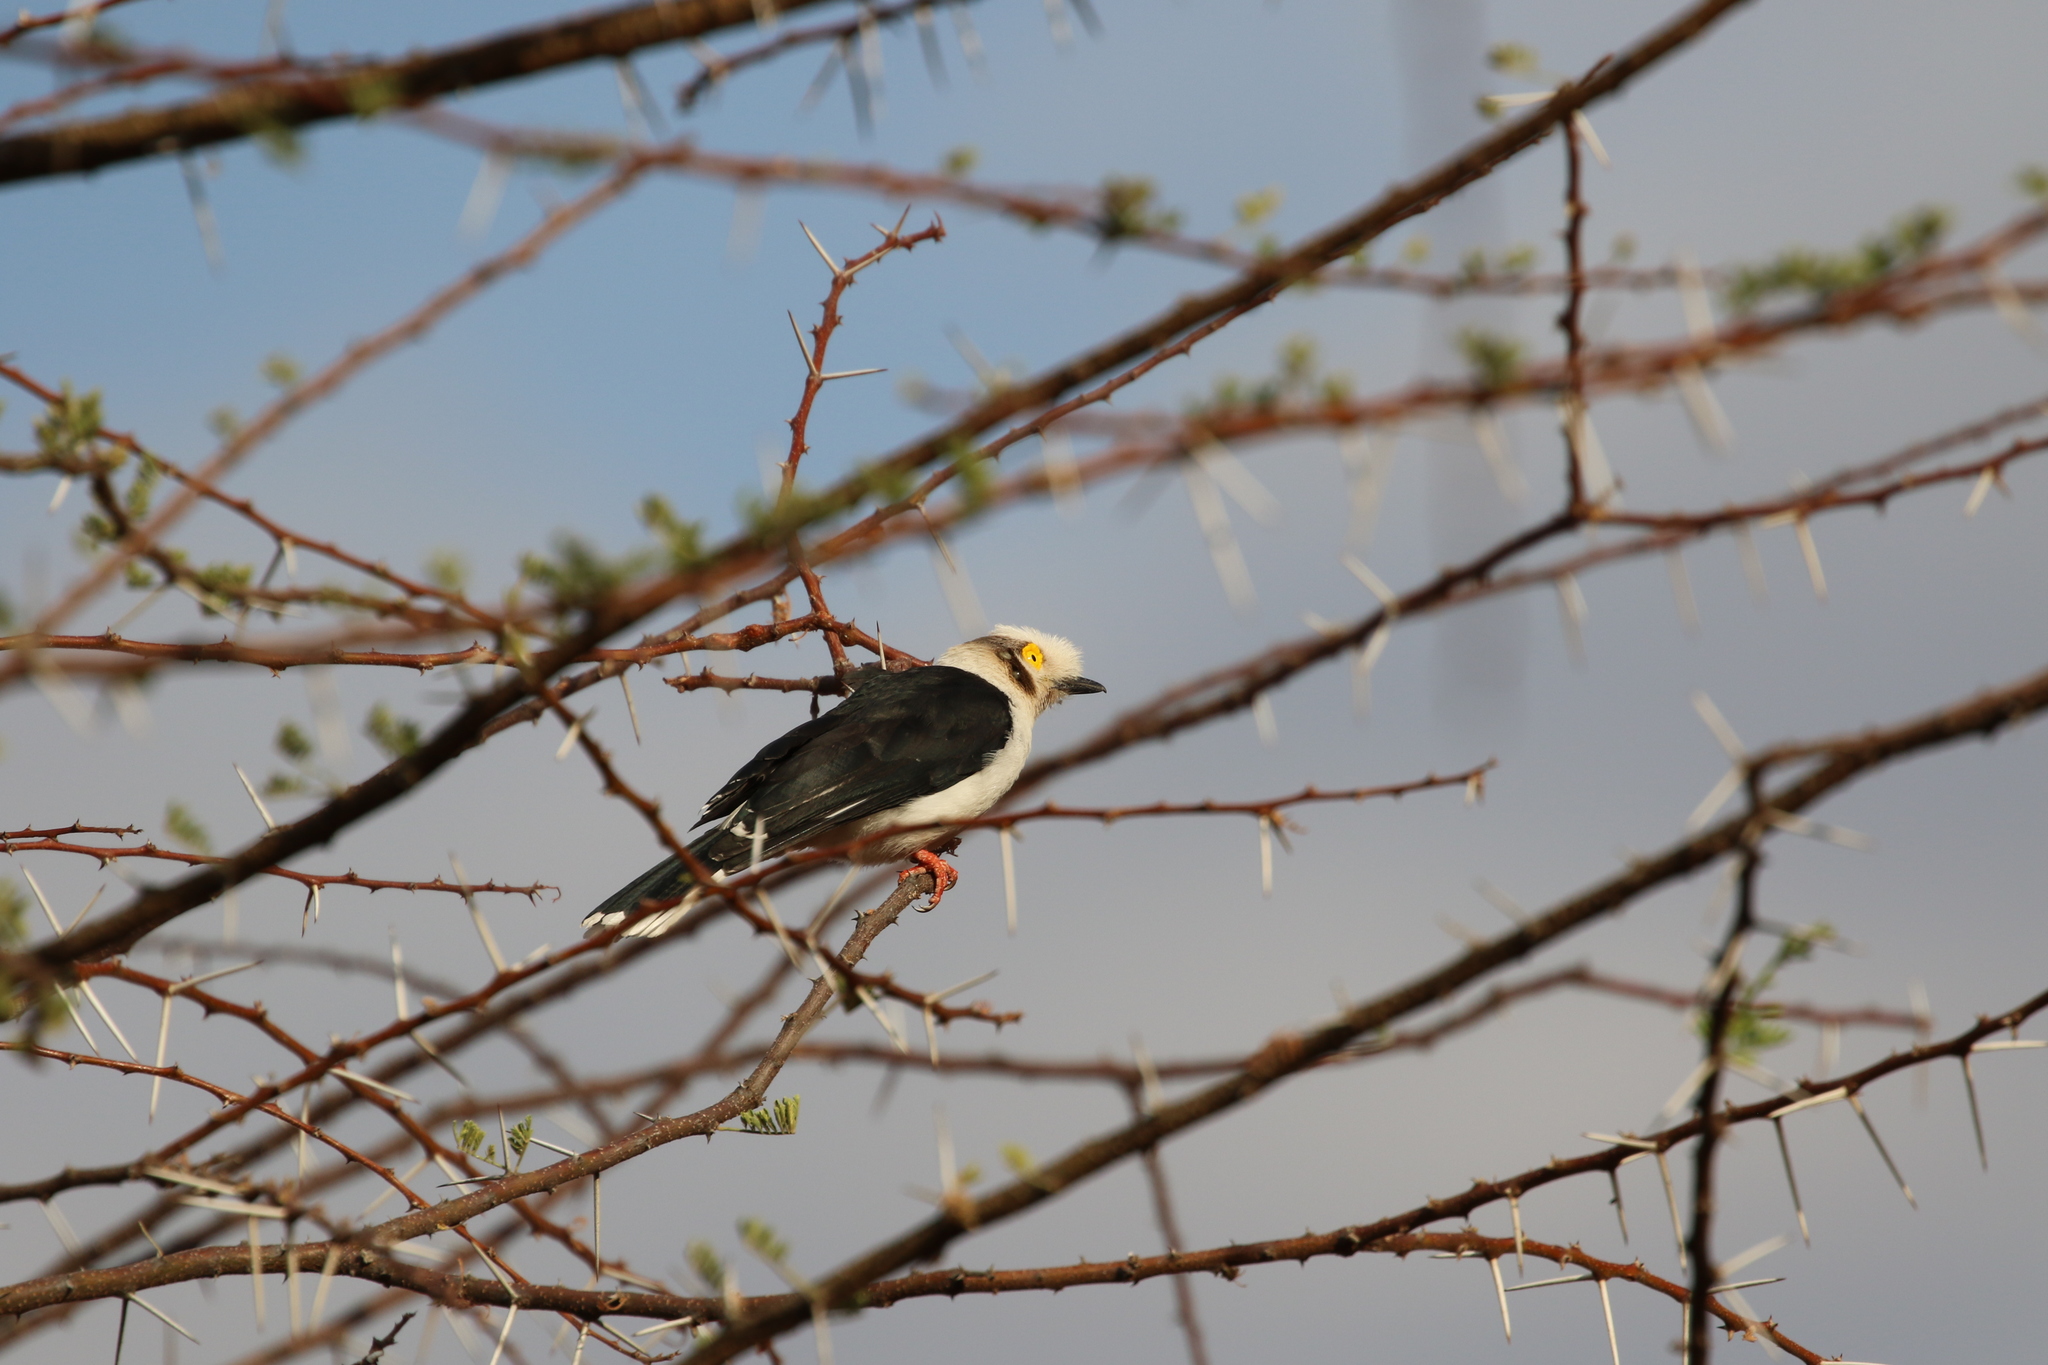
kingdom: Animalia
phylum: Chordata
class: Aves
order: Passeriformes
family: Prionopidae
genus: Prionops
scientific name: Prionops plumatus
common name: White-crested helmetshrike
